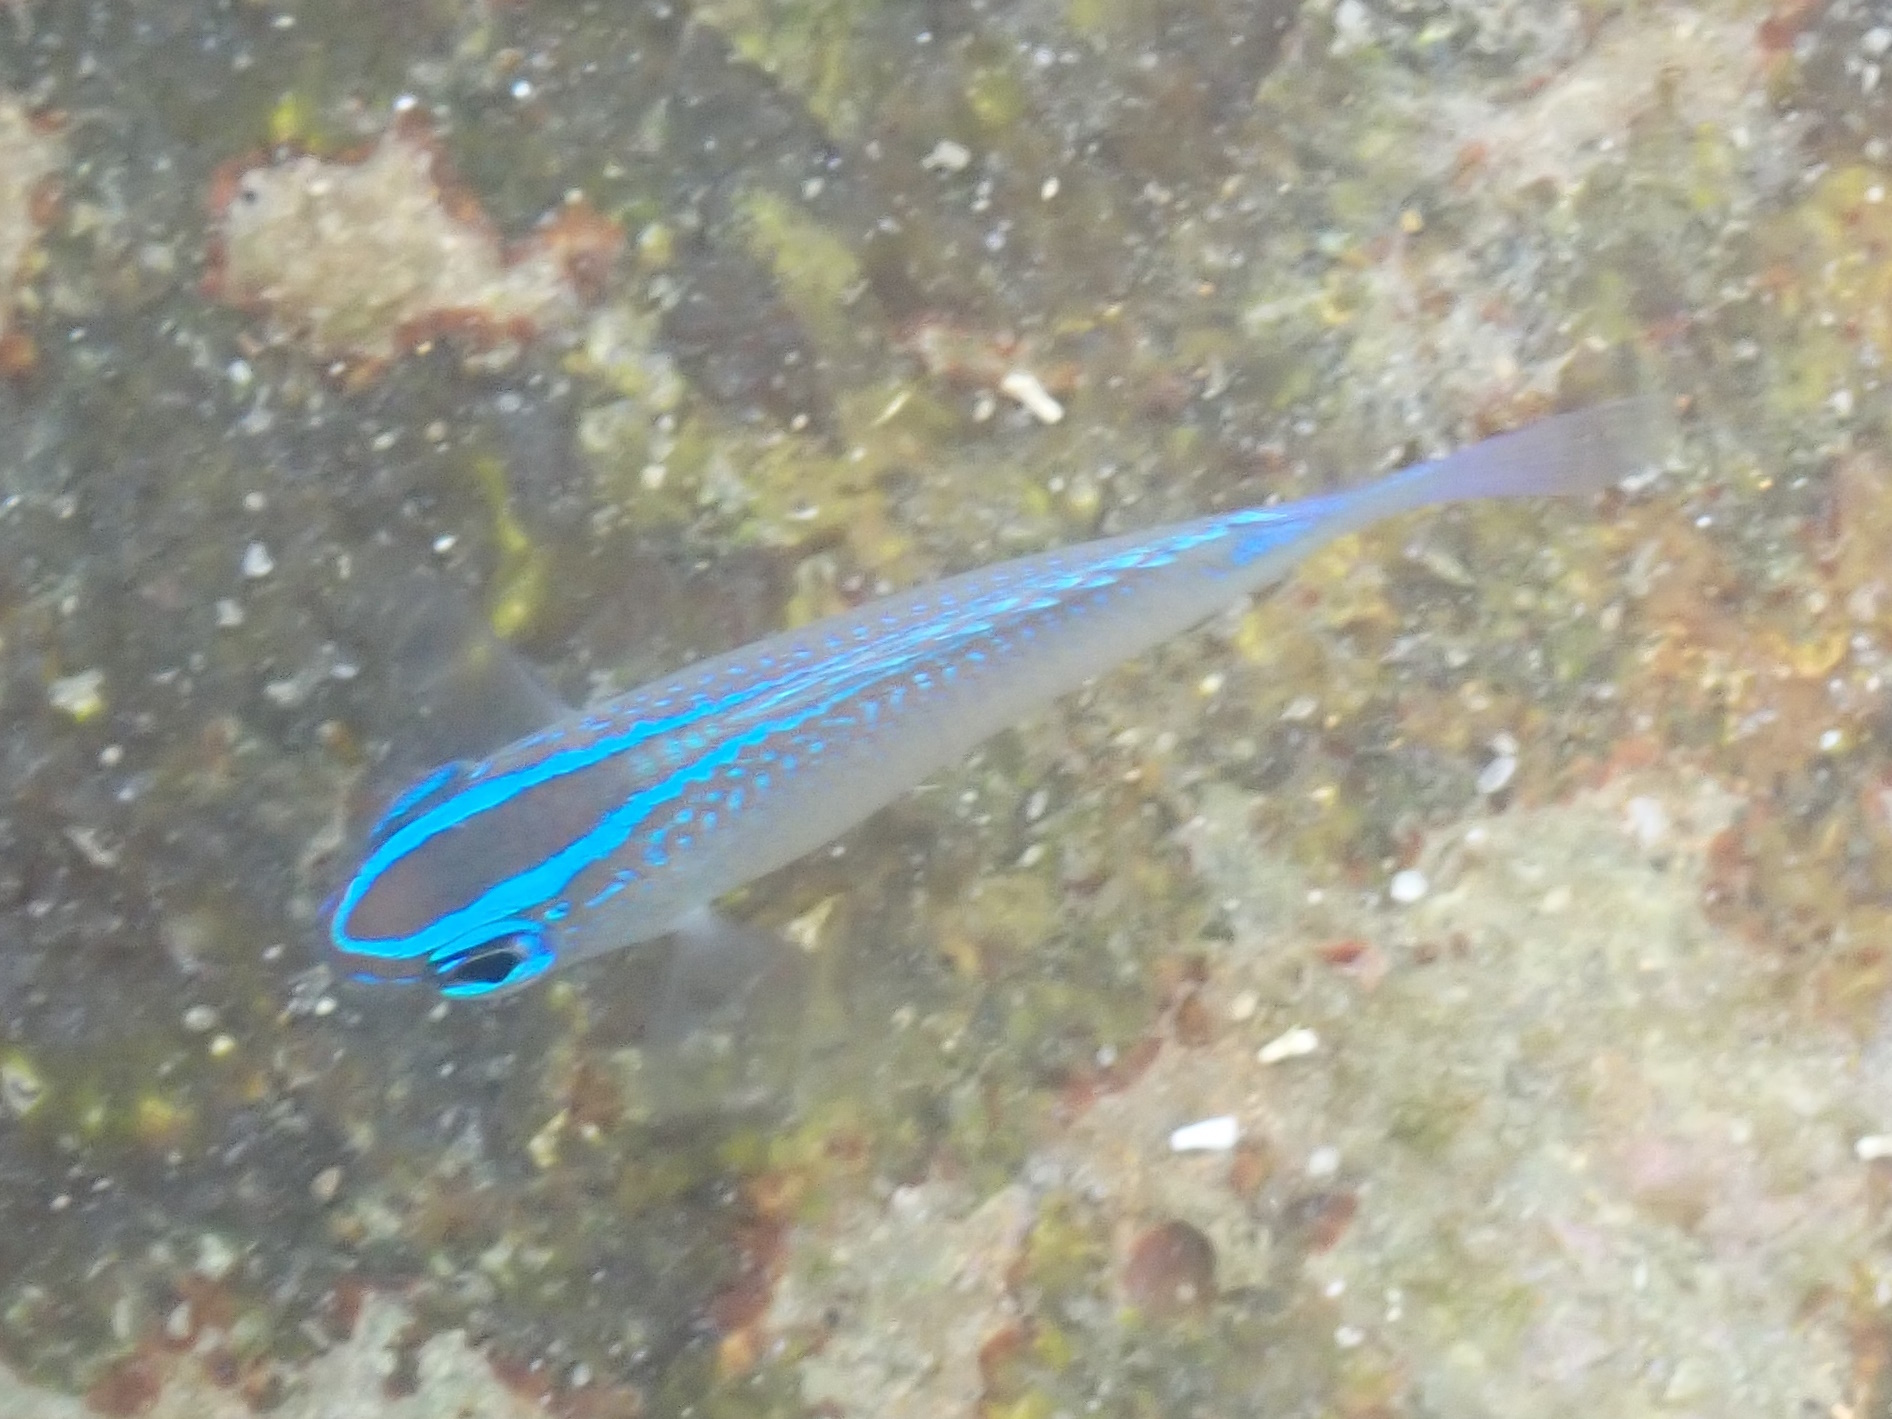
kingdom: Animalia
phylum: Chordata
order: Perciformes
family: Pomacentridae
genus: Chrysiptera
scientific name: Chrysiptera glauca
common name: Grey demoiselle
